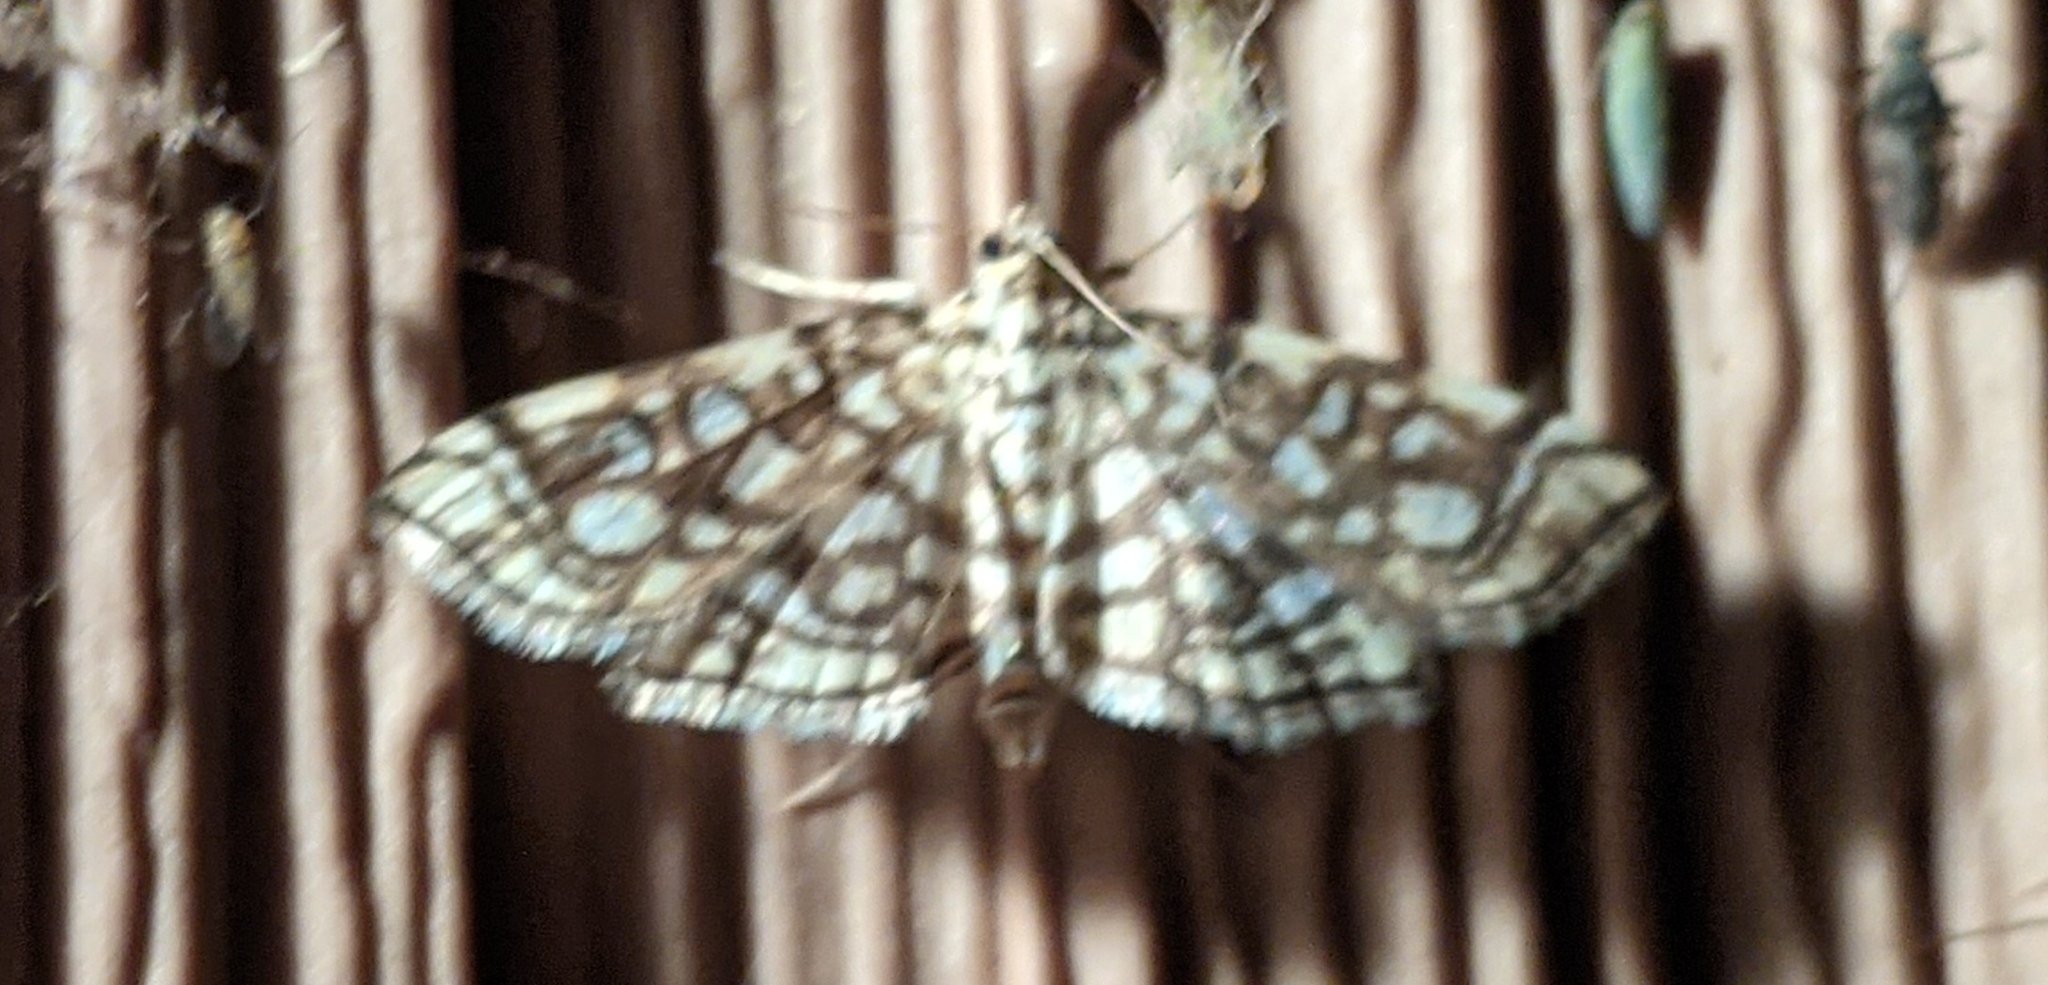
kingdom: Animalia
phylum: Arthropoda
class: Insecta
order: Lepidoptera
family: Crambidae
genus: Lygropia
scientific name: Lygropia rivulalis
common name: Bog lygropia moth
